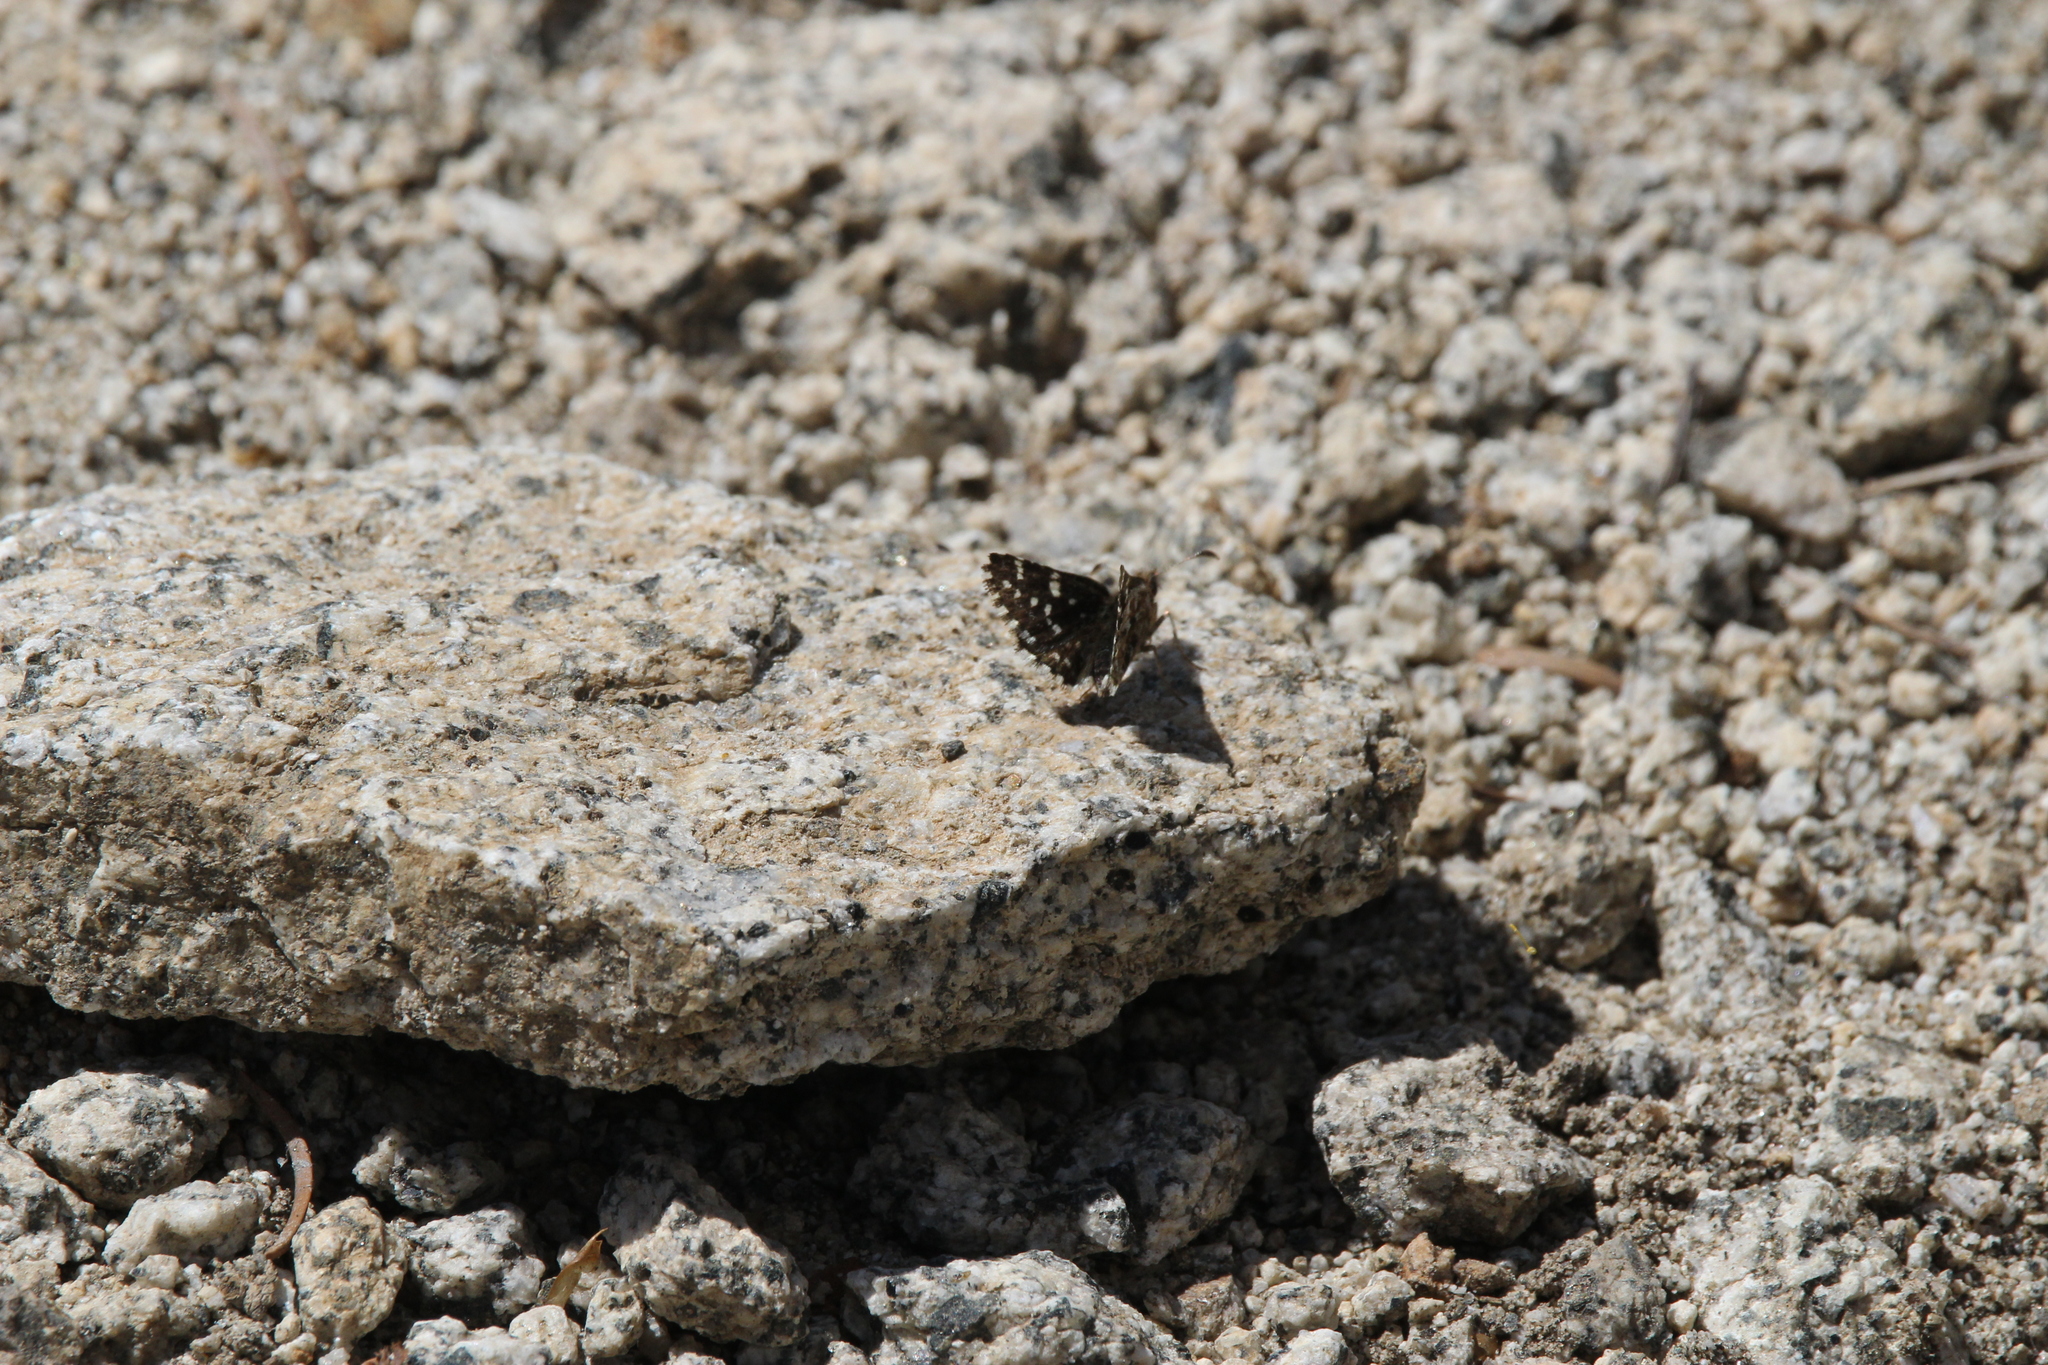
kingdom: Animalia
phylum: Arthropoda
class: Insecta
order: Lepidoptera
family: Hesperiidae
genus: Pyrgus
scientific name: Pyrgus ruralis
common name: Two-banded checkered-skipper
